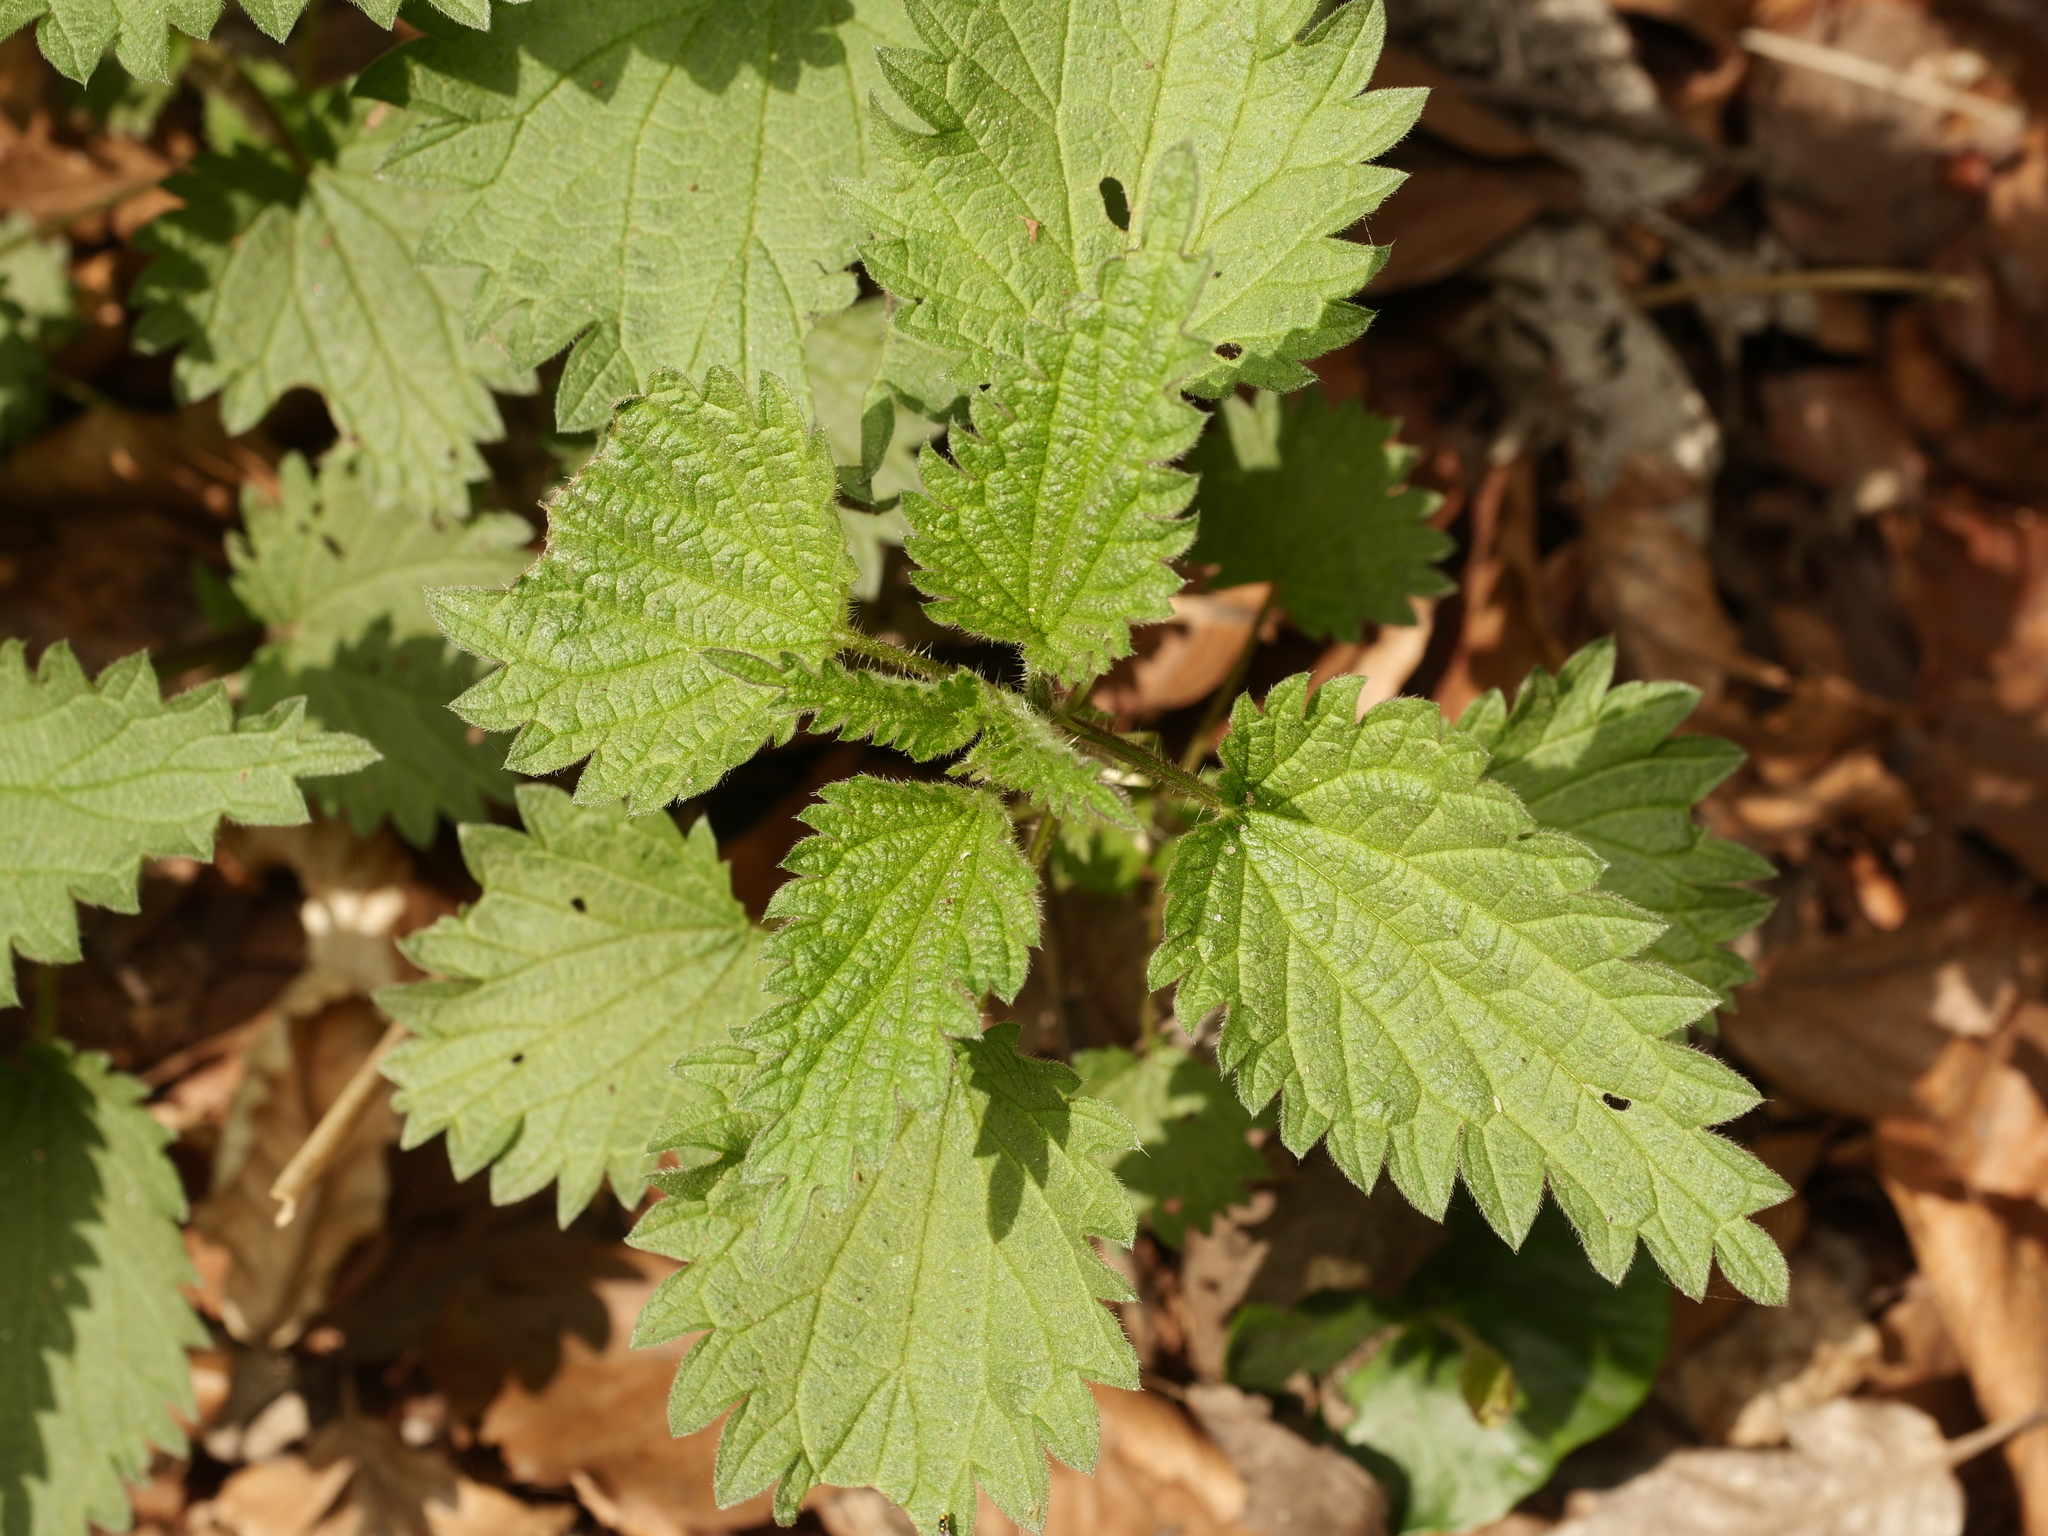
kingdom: Plantae
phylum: Tracheophyta
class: Magnoliopsida
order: Rosales
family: Urticaceae
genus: Urtica
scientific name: Urtica dioica
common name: Common nettle
